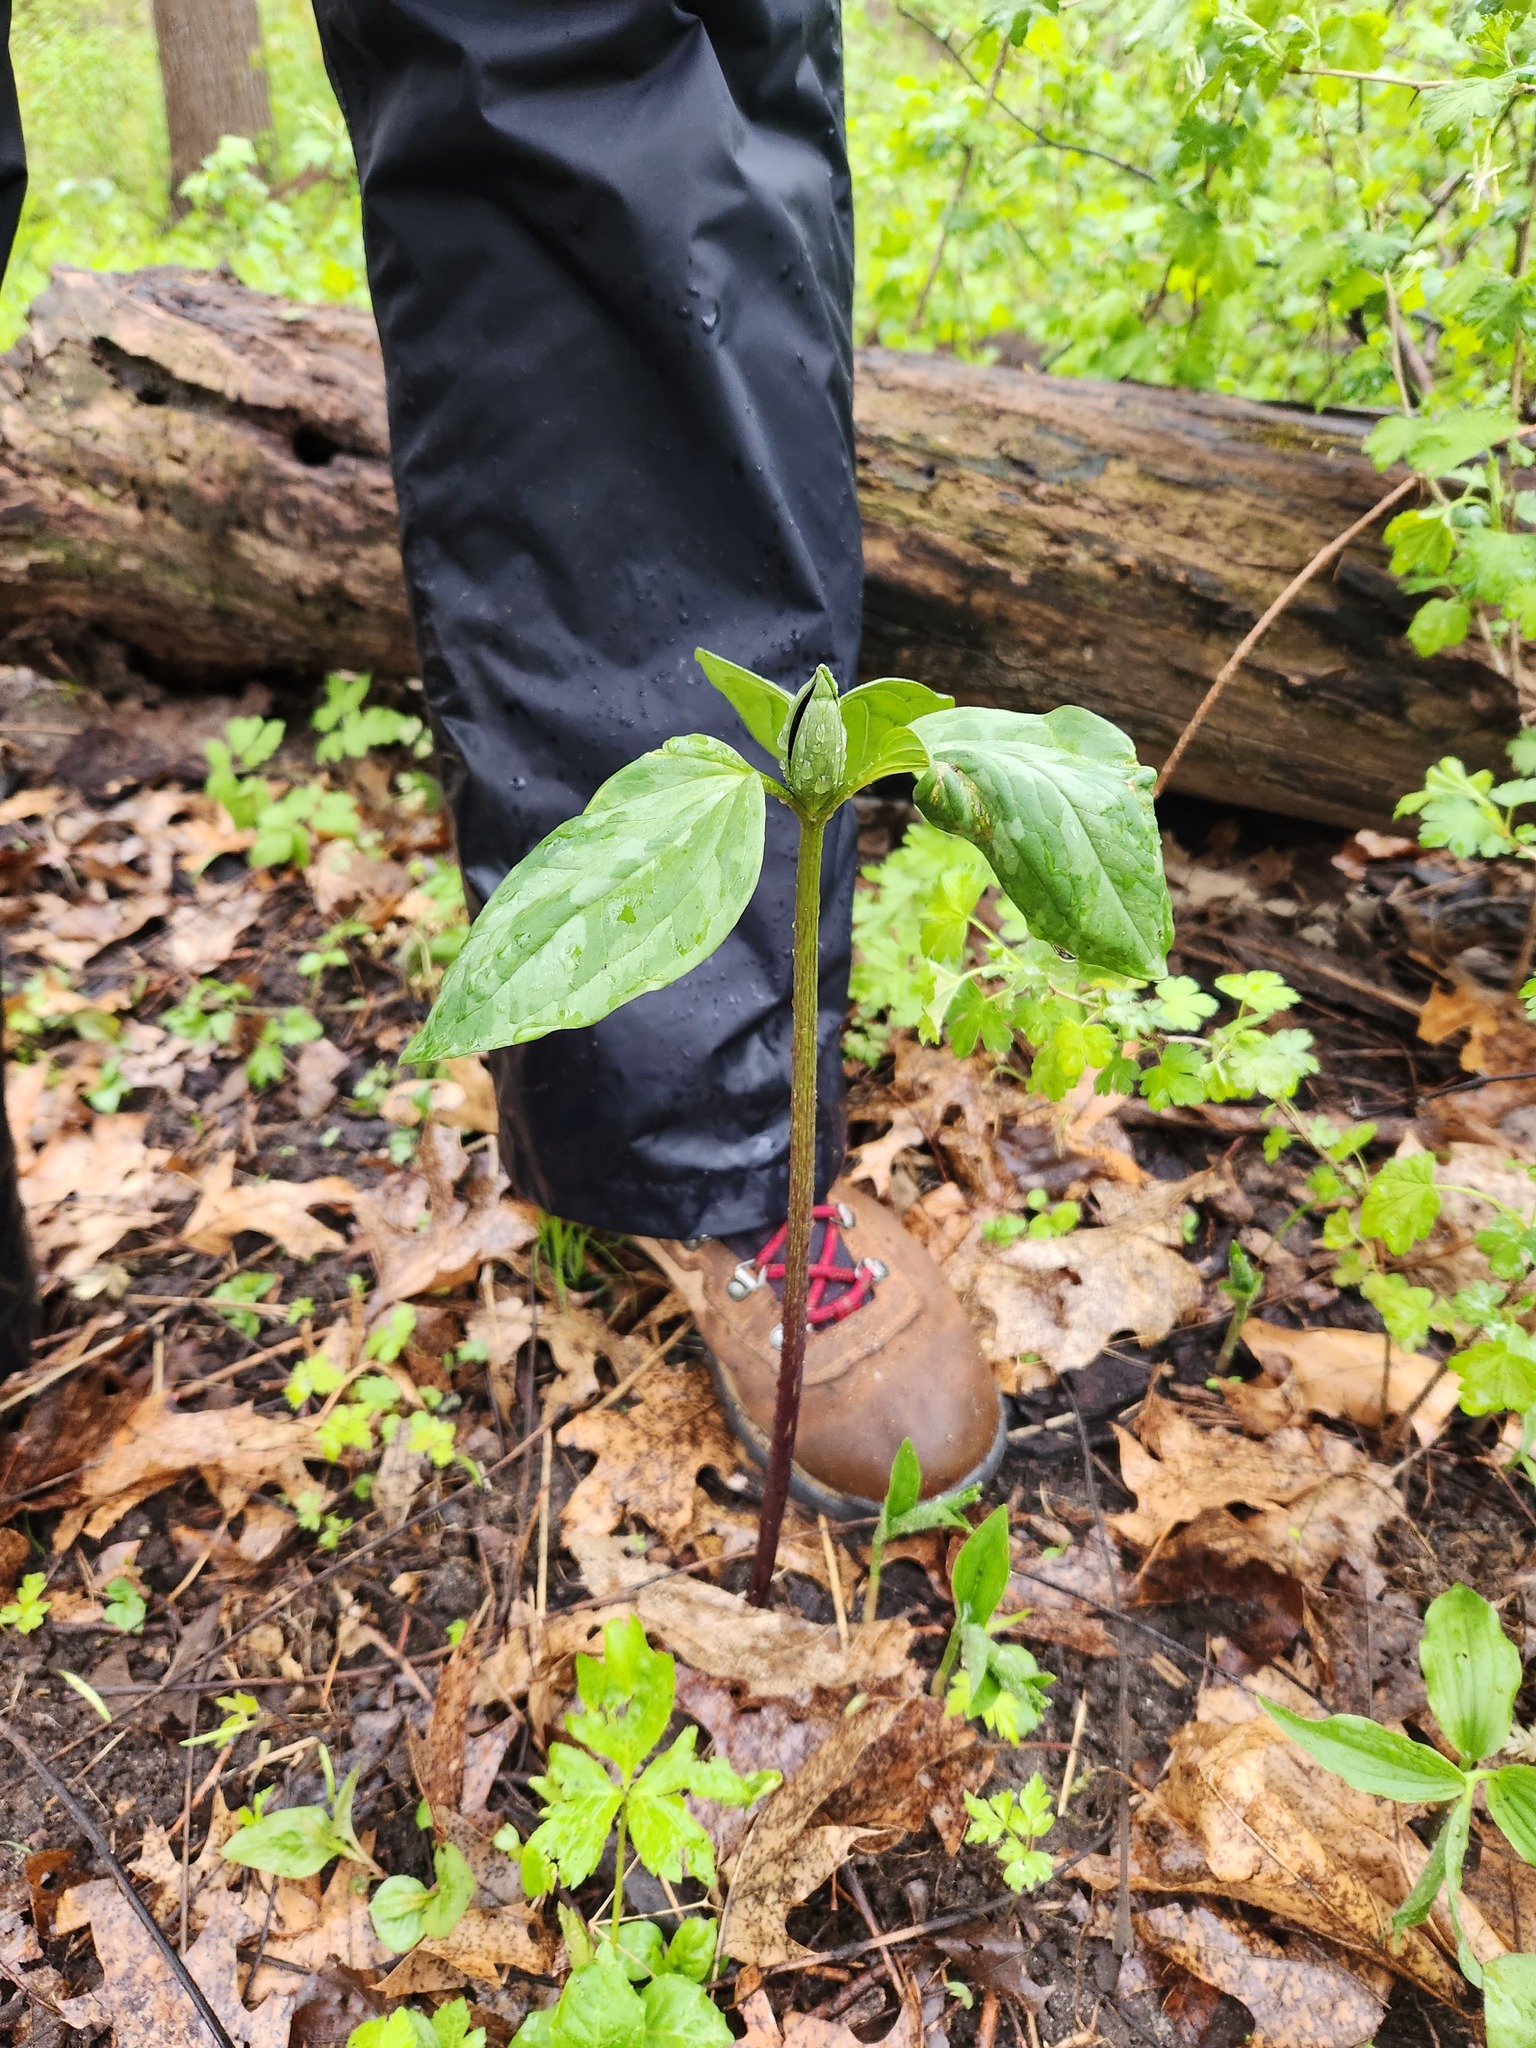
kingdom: Plantae
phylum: Tracheophyta
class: Liliopsida
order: Liliales
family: Melanthiaceae
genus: Trillium
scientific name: Trillium recurvatum
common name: Bloody butcher
